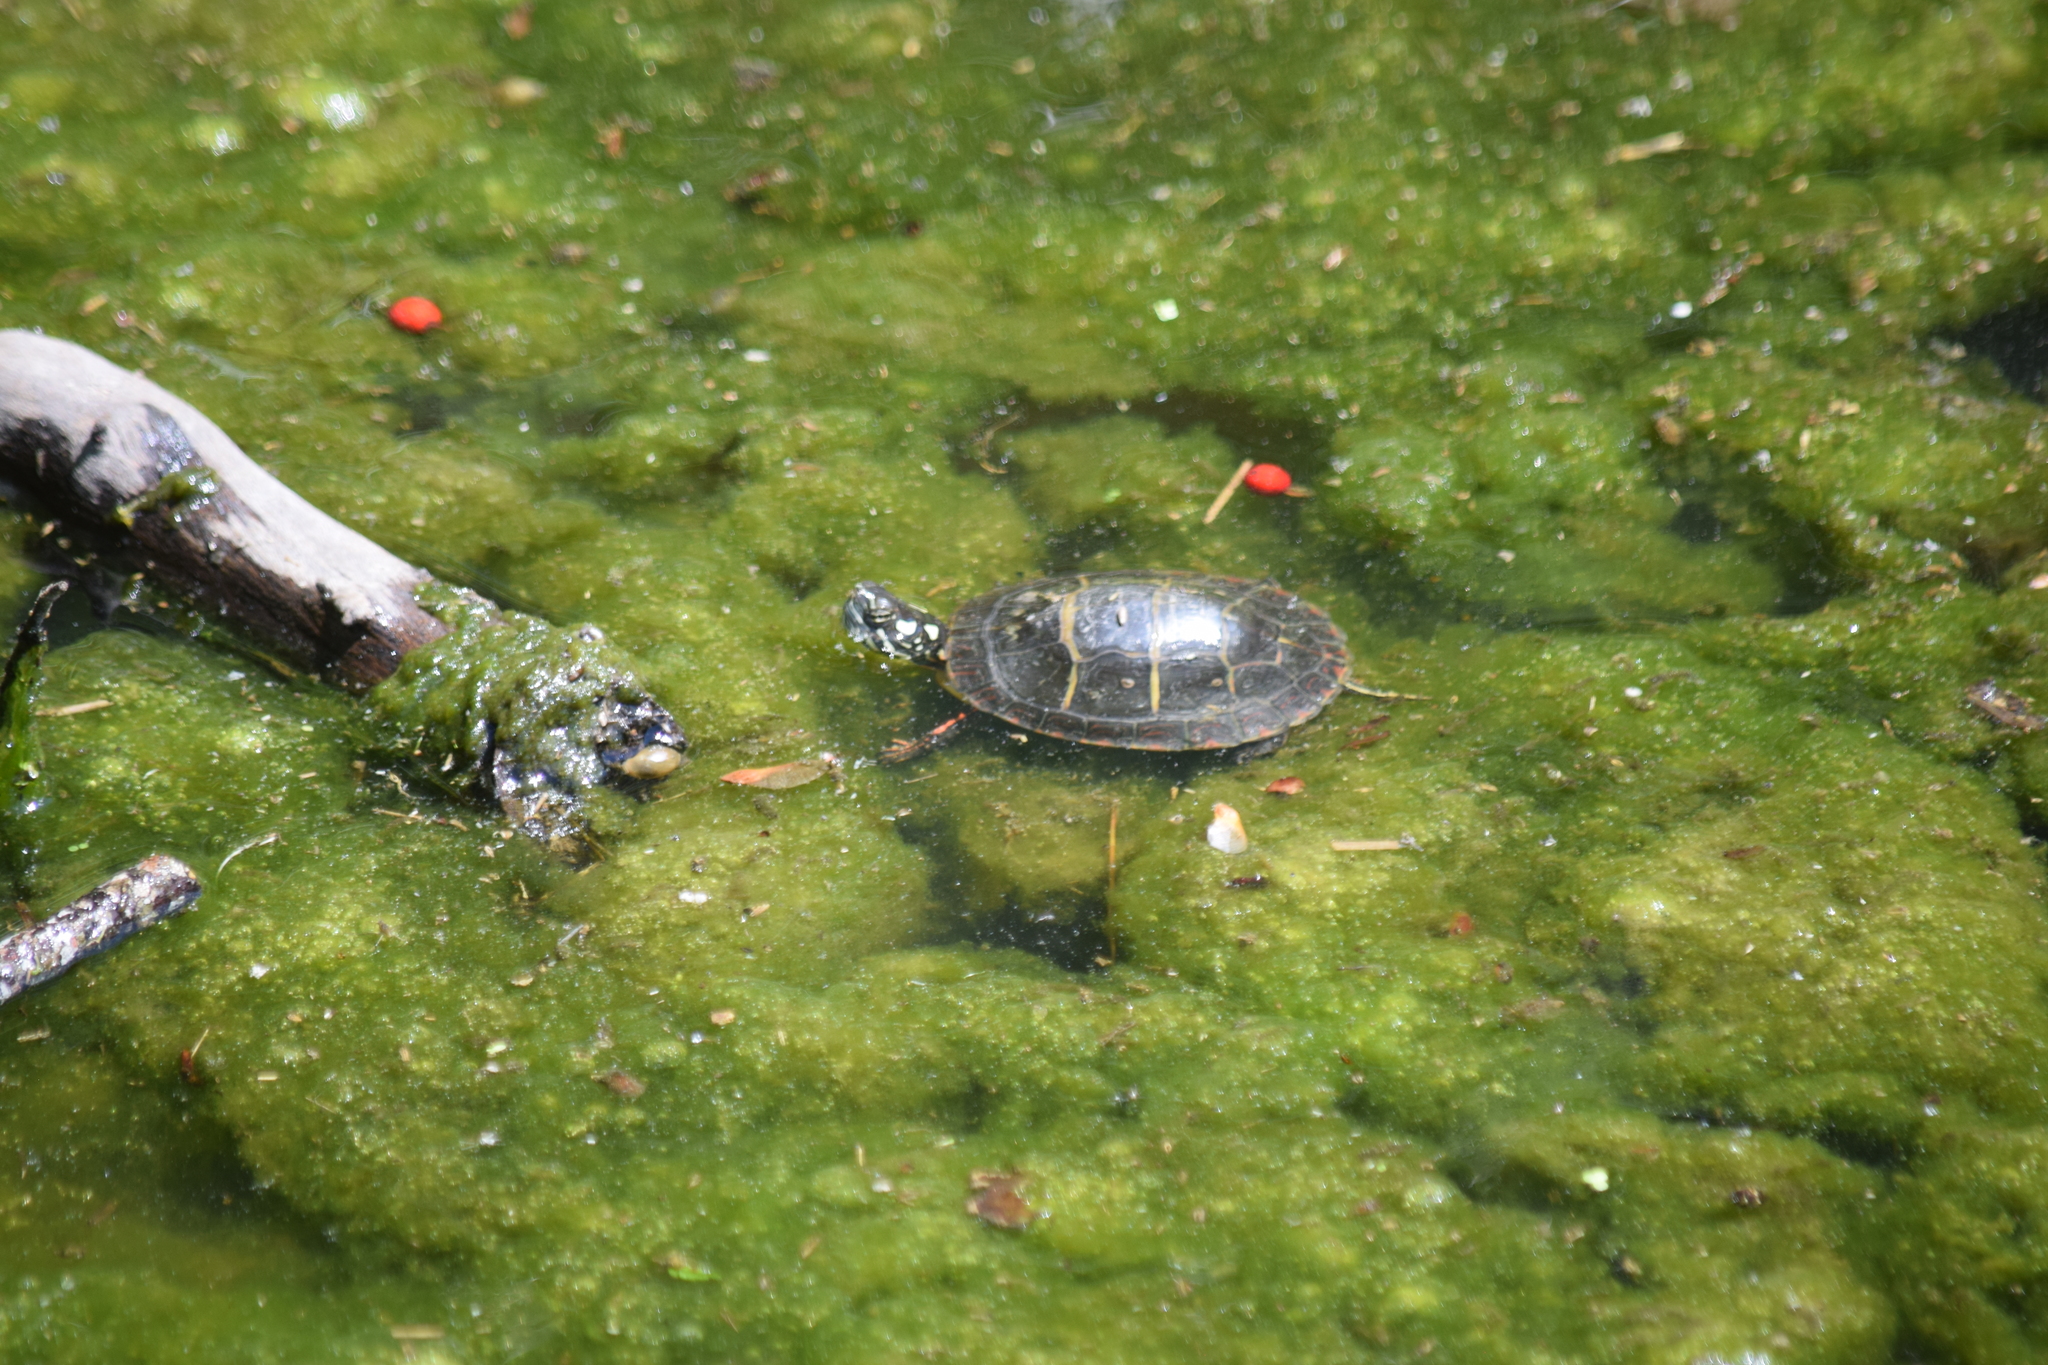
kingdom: Animalia
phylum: Chordata
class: Testudines
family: Emydidae
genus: Chrysemys
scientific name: Chrysemys picta
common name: Painted turtle
